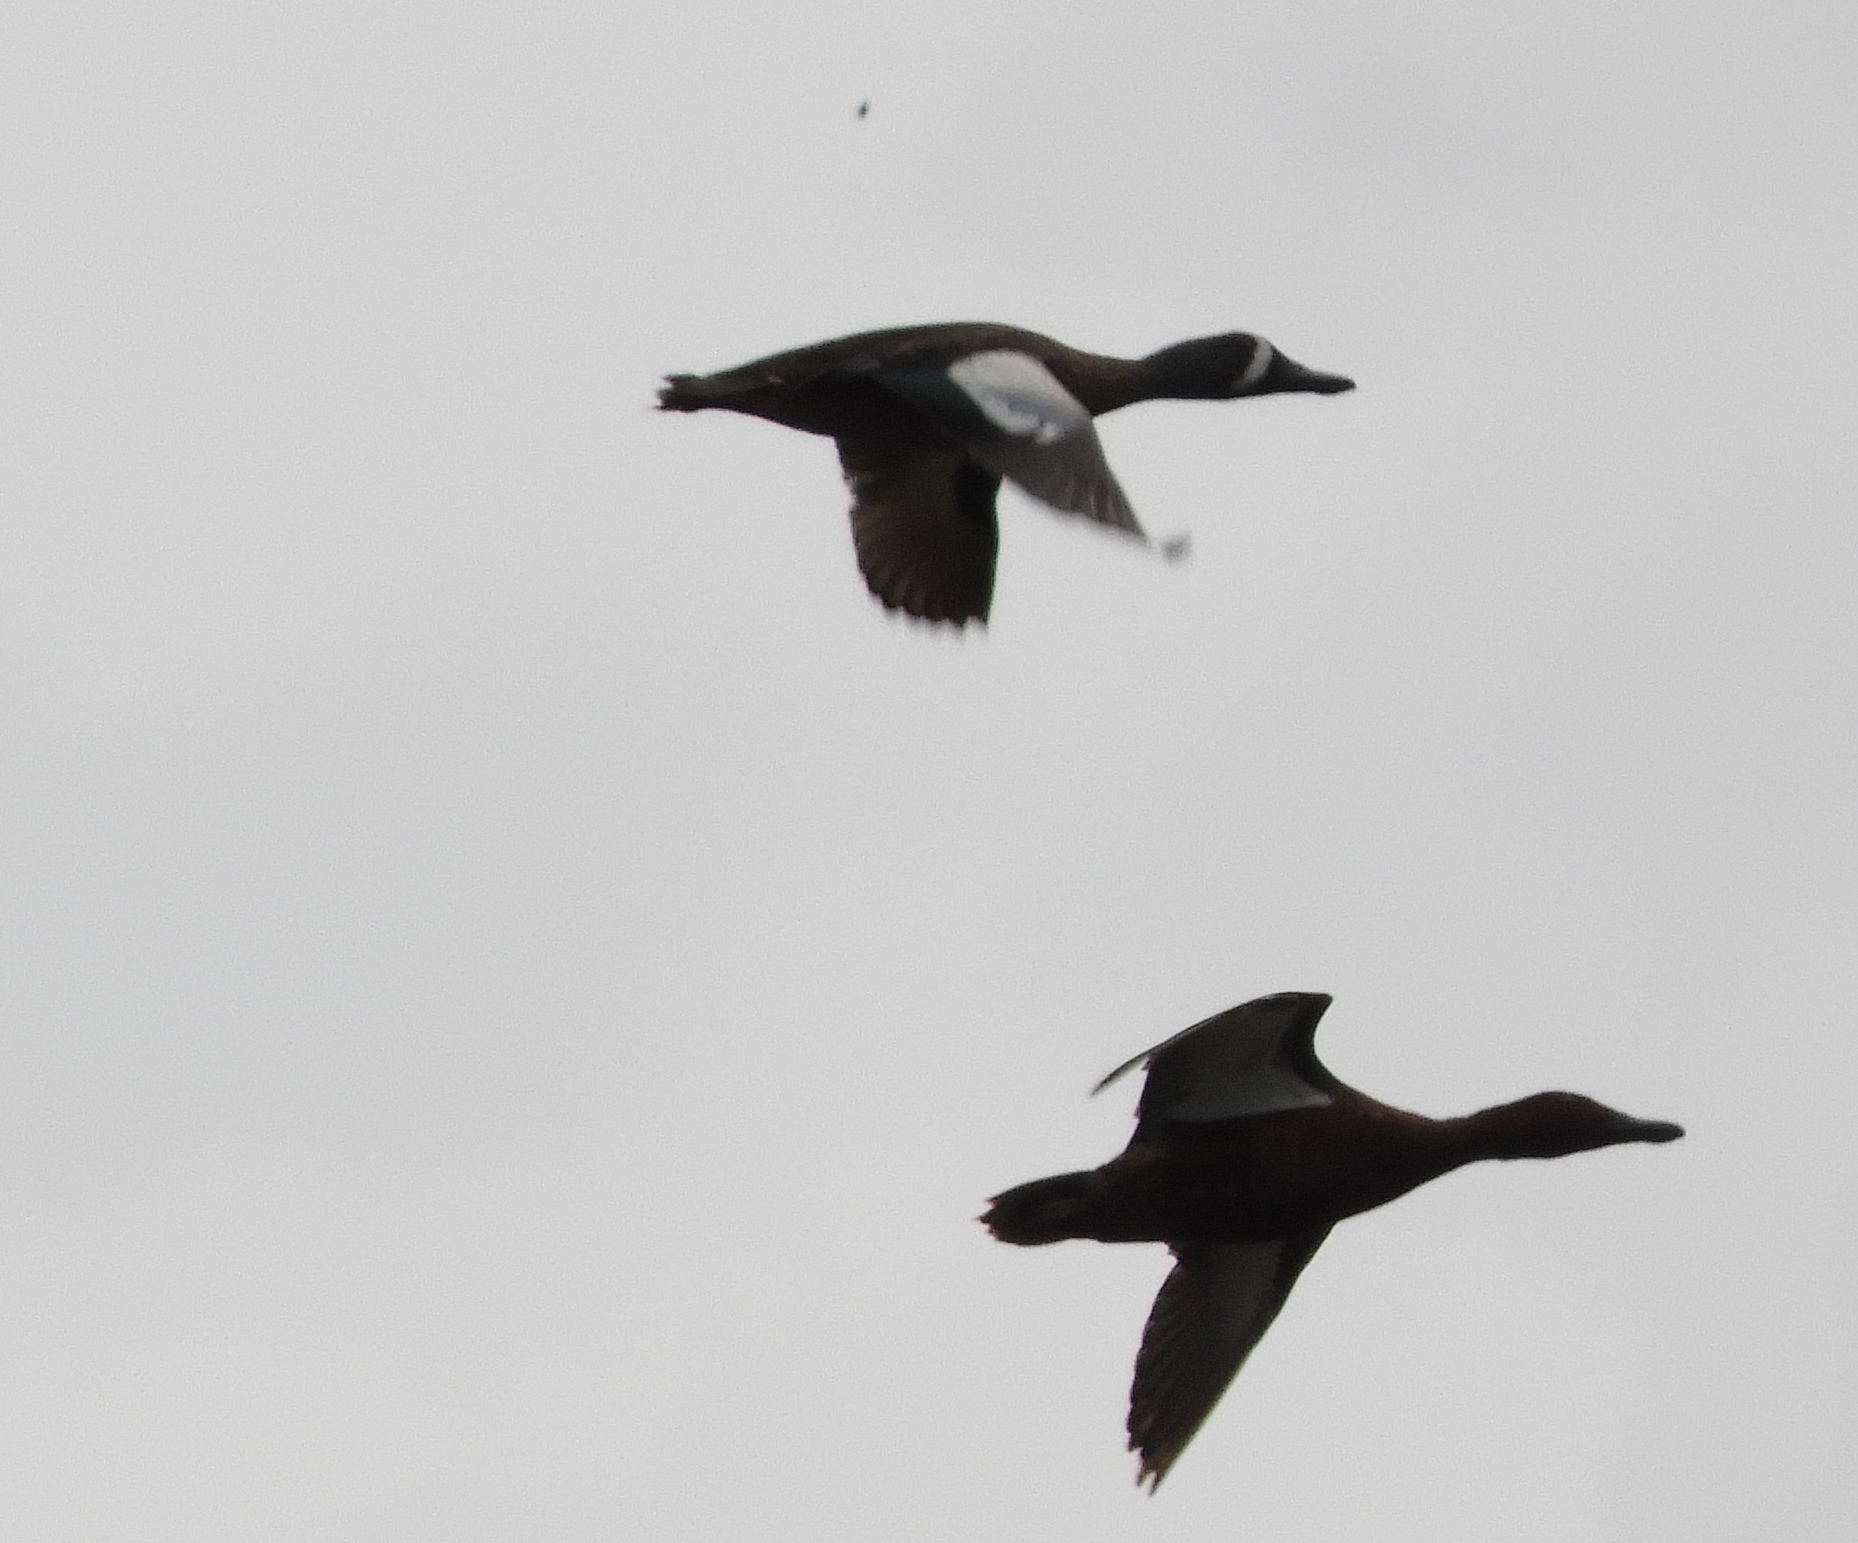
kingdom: Animalia
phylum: Chordata
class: Aves
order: Anseriformes
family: Anatidae
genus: Spatula
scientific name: Spatula discors
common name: Blue-winged teal
